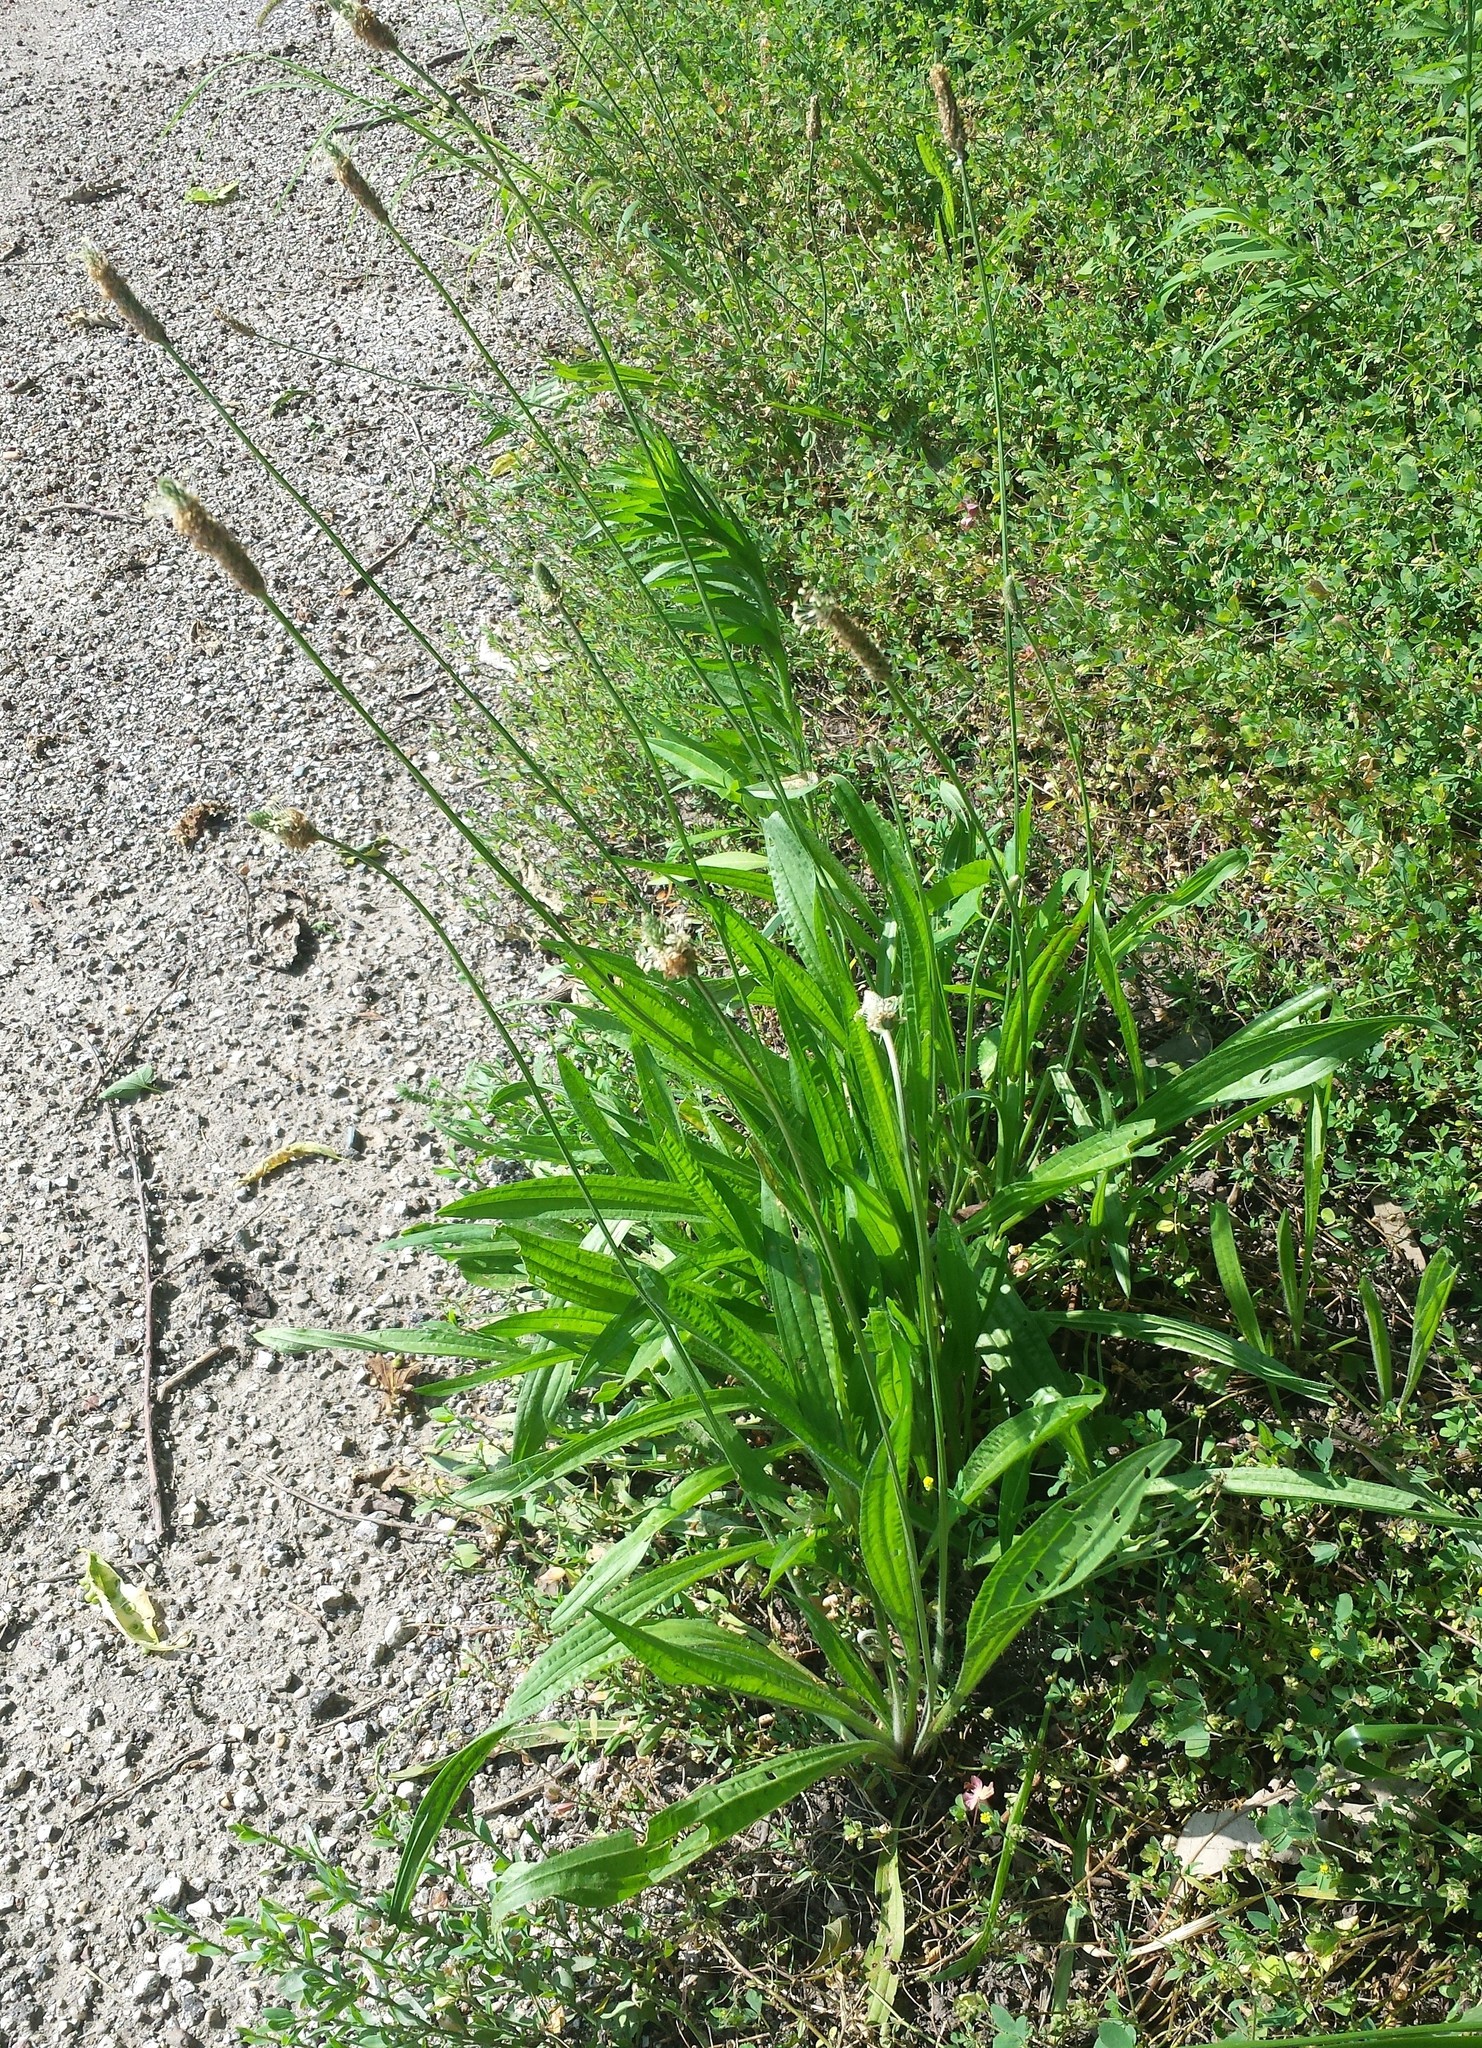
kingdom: Plantae
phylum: Tracheophyta
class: Magnoliopsida
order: Lamiales
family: Plantaginaceae
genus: Plantago
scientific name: Plantago lanceolata
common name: Ribwort plantain
